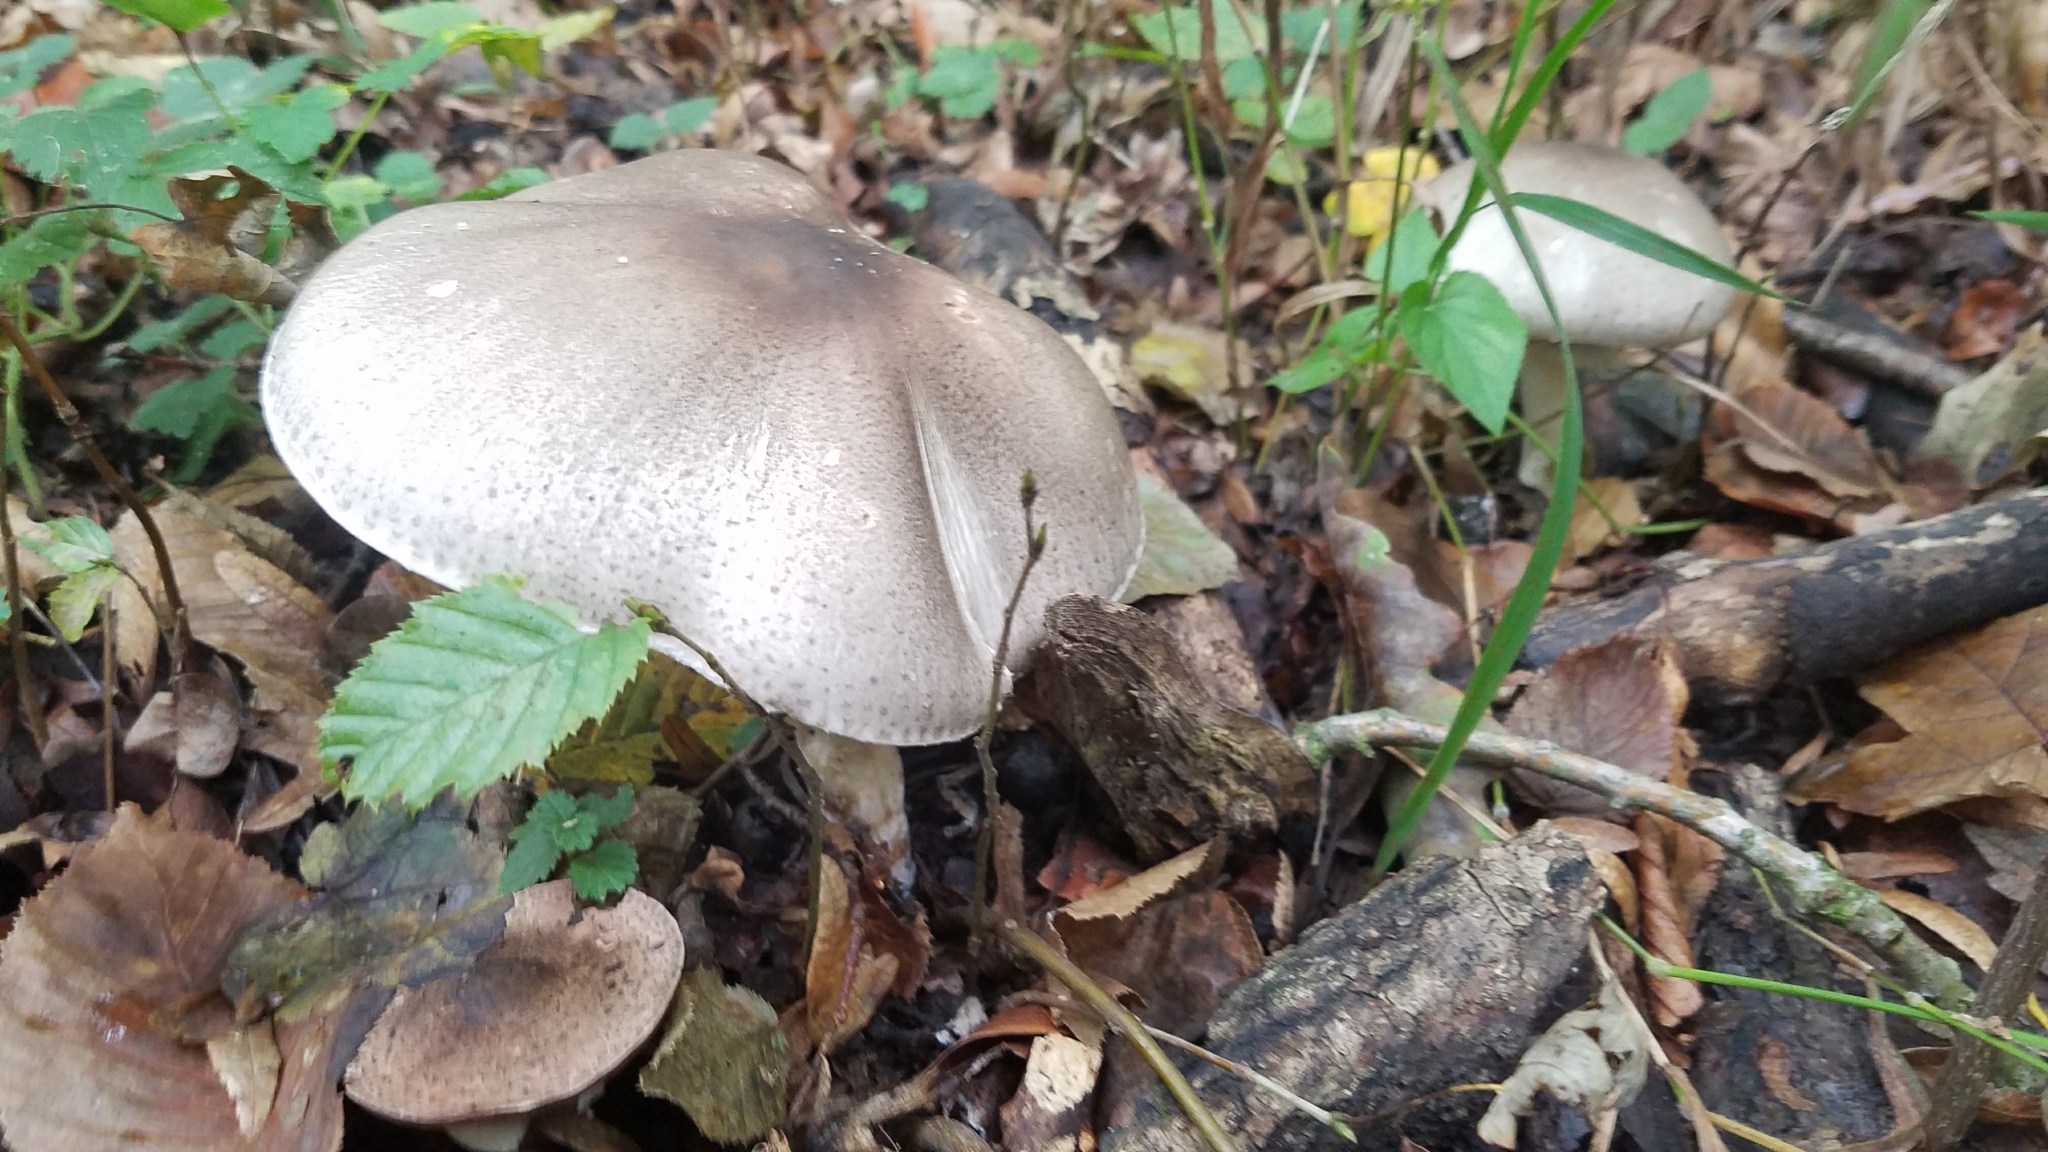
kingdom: Fungi
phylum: Basidiomycota
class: Agaricomycetes
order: Agaricales
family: Agaricaceae
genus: Agaricus
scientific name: Agaricus moelleri
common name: Inky mushroom
